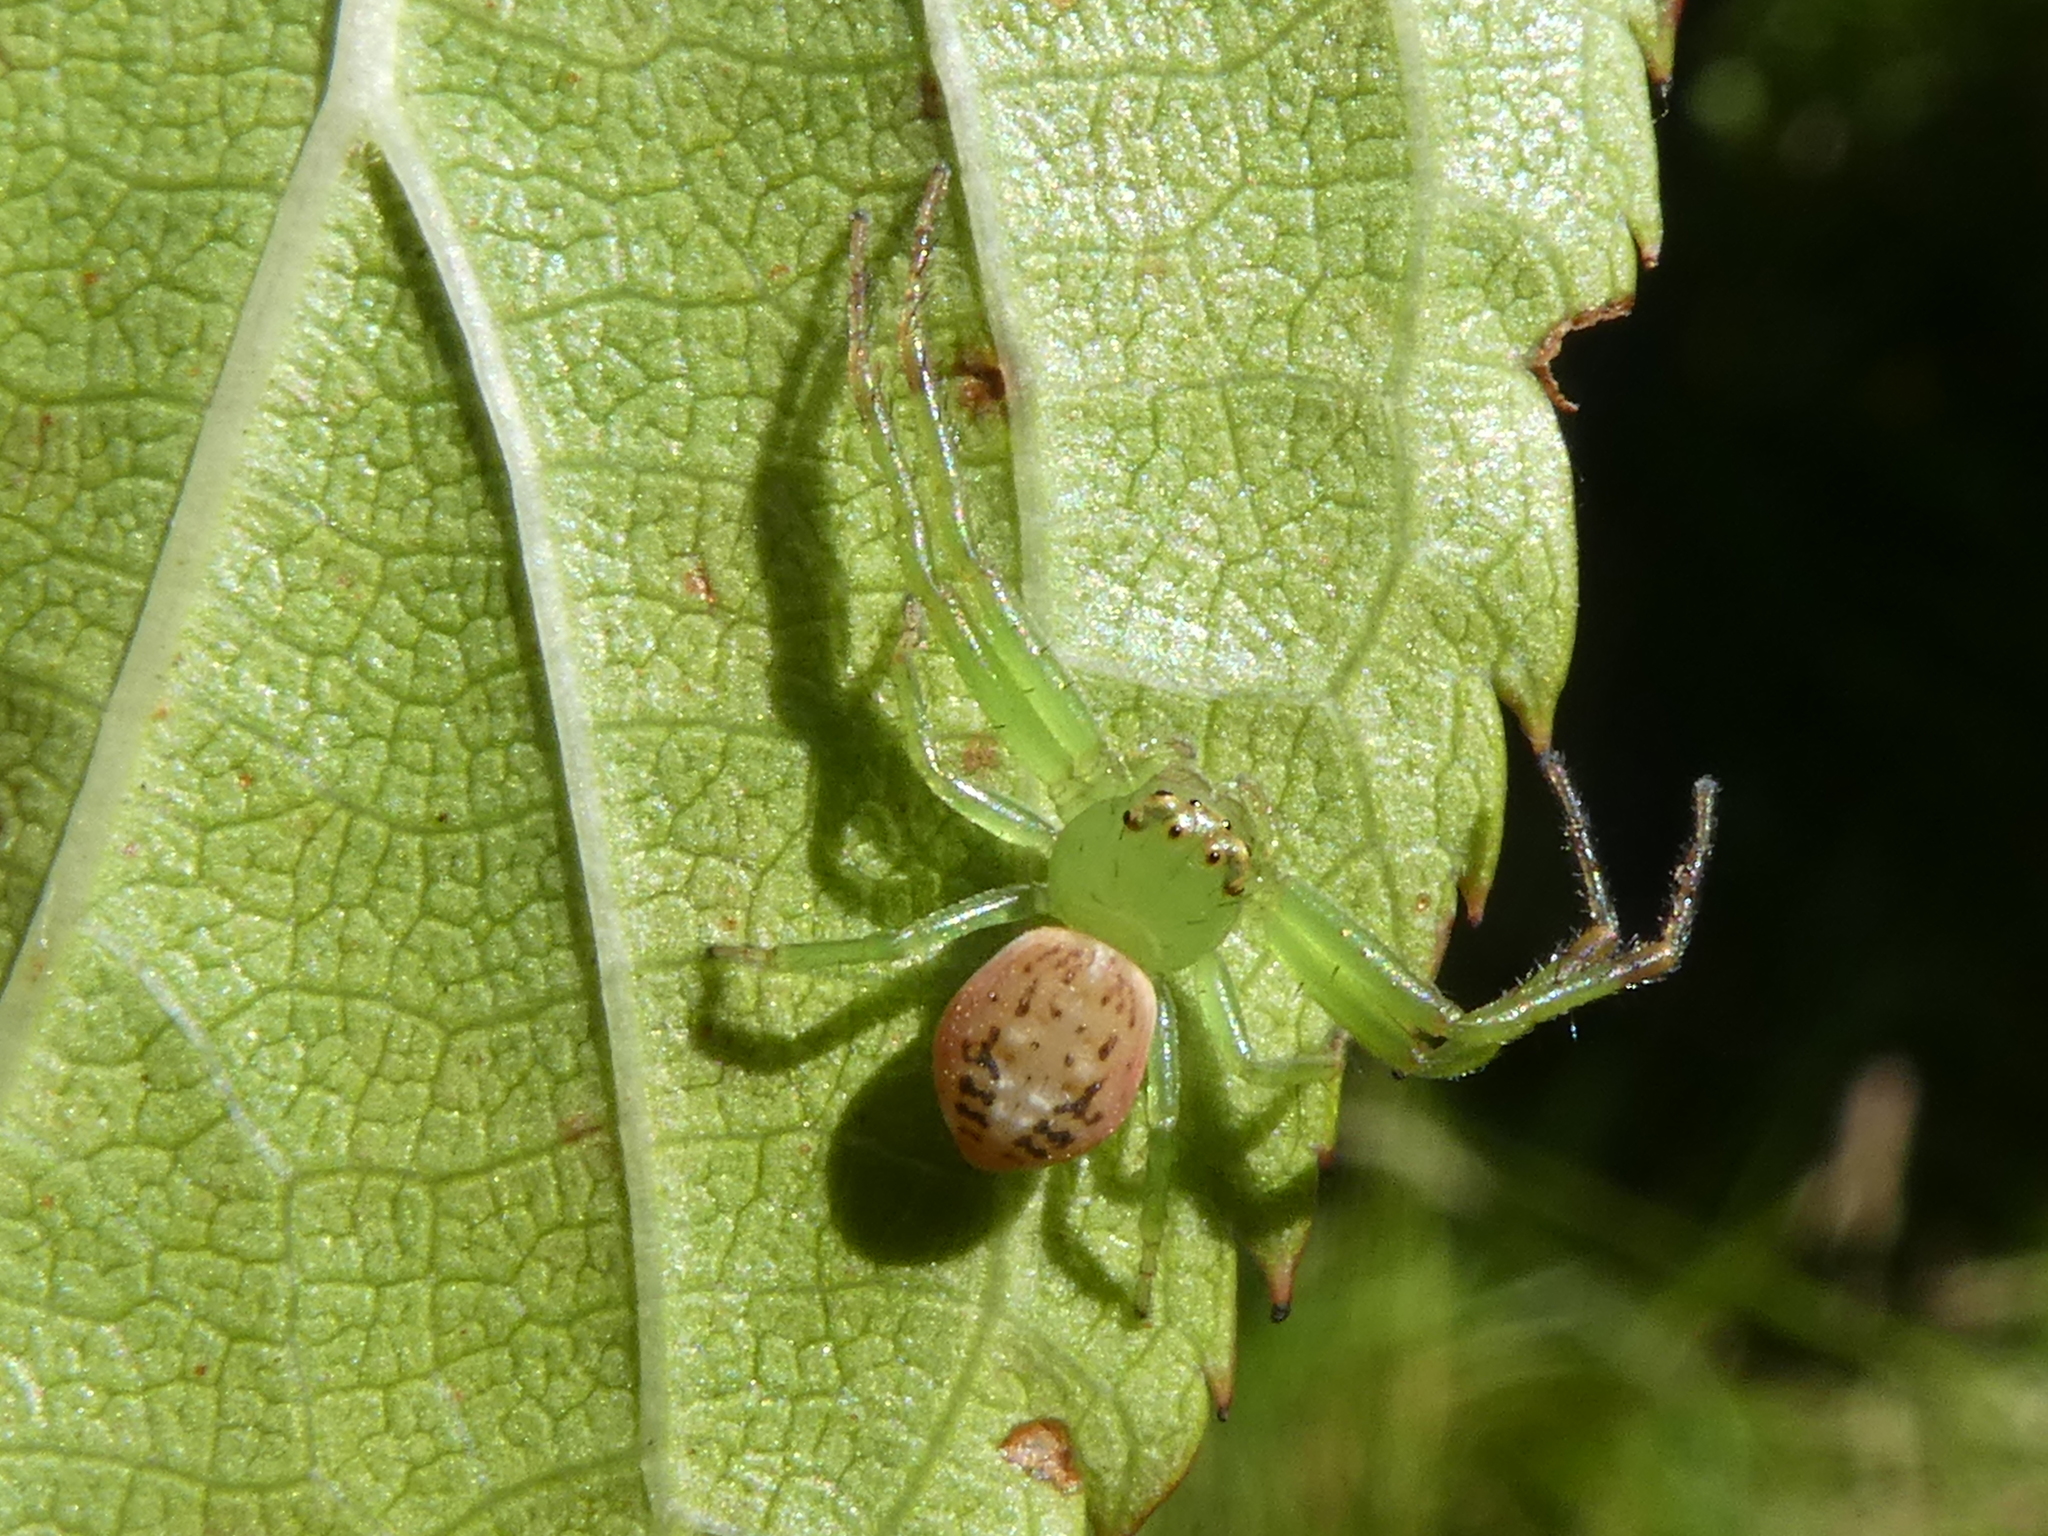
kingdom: Animalia
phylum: Arthropoda
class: Arachnida
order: Araneae
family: Thomisidae
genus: Diaea
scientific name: Diaea ambara
